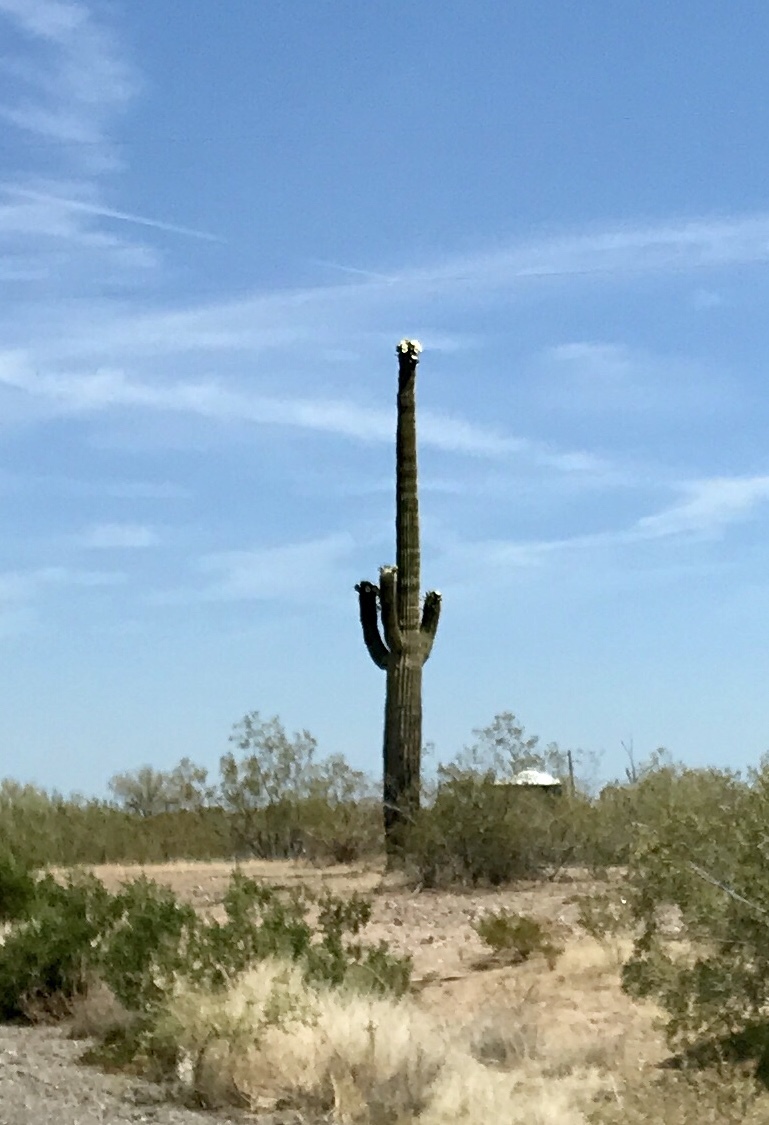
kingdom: Plantae
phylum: Tracheophyta
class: Magnoliopsida
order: Caryophyllales
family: Cactaceae
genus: Carnegiea
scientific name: Carnegiea gigantea
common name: Saguaro
